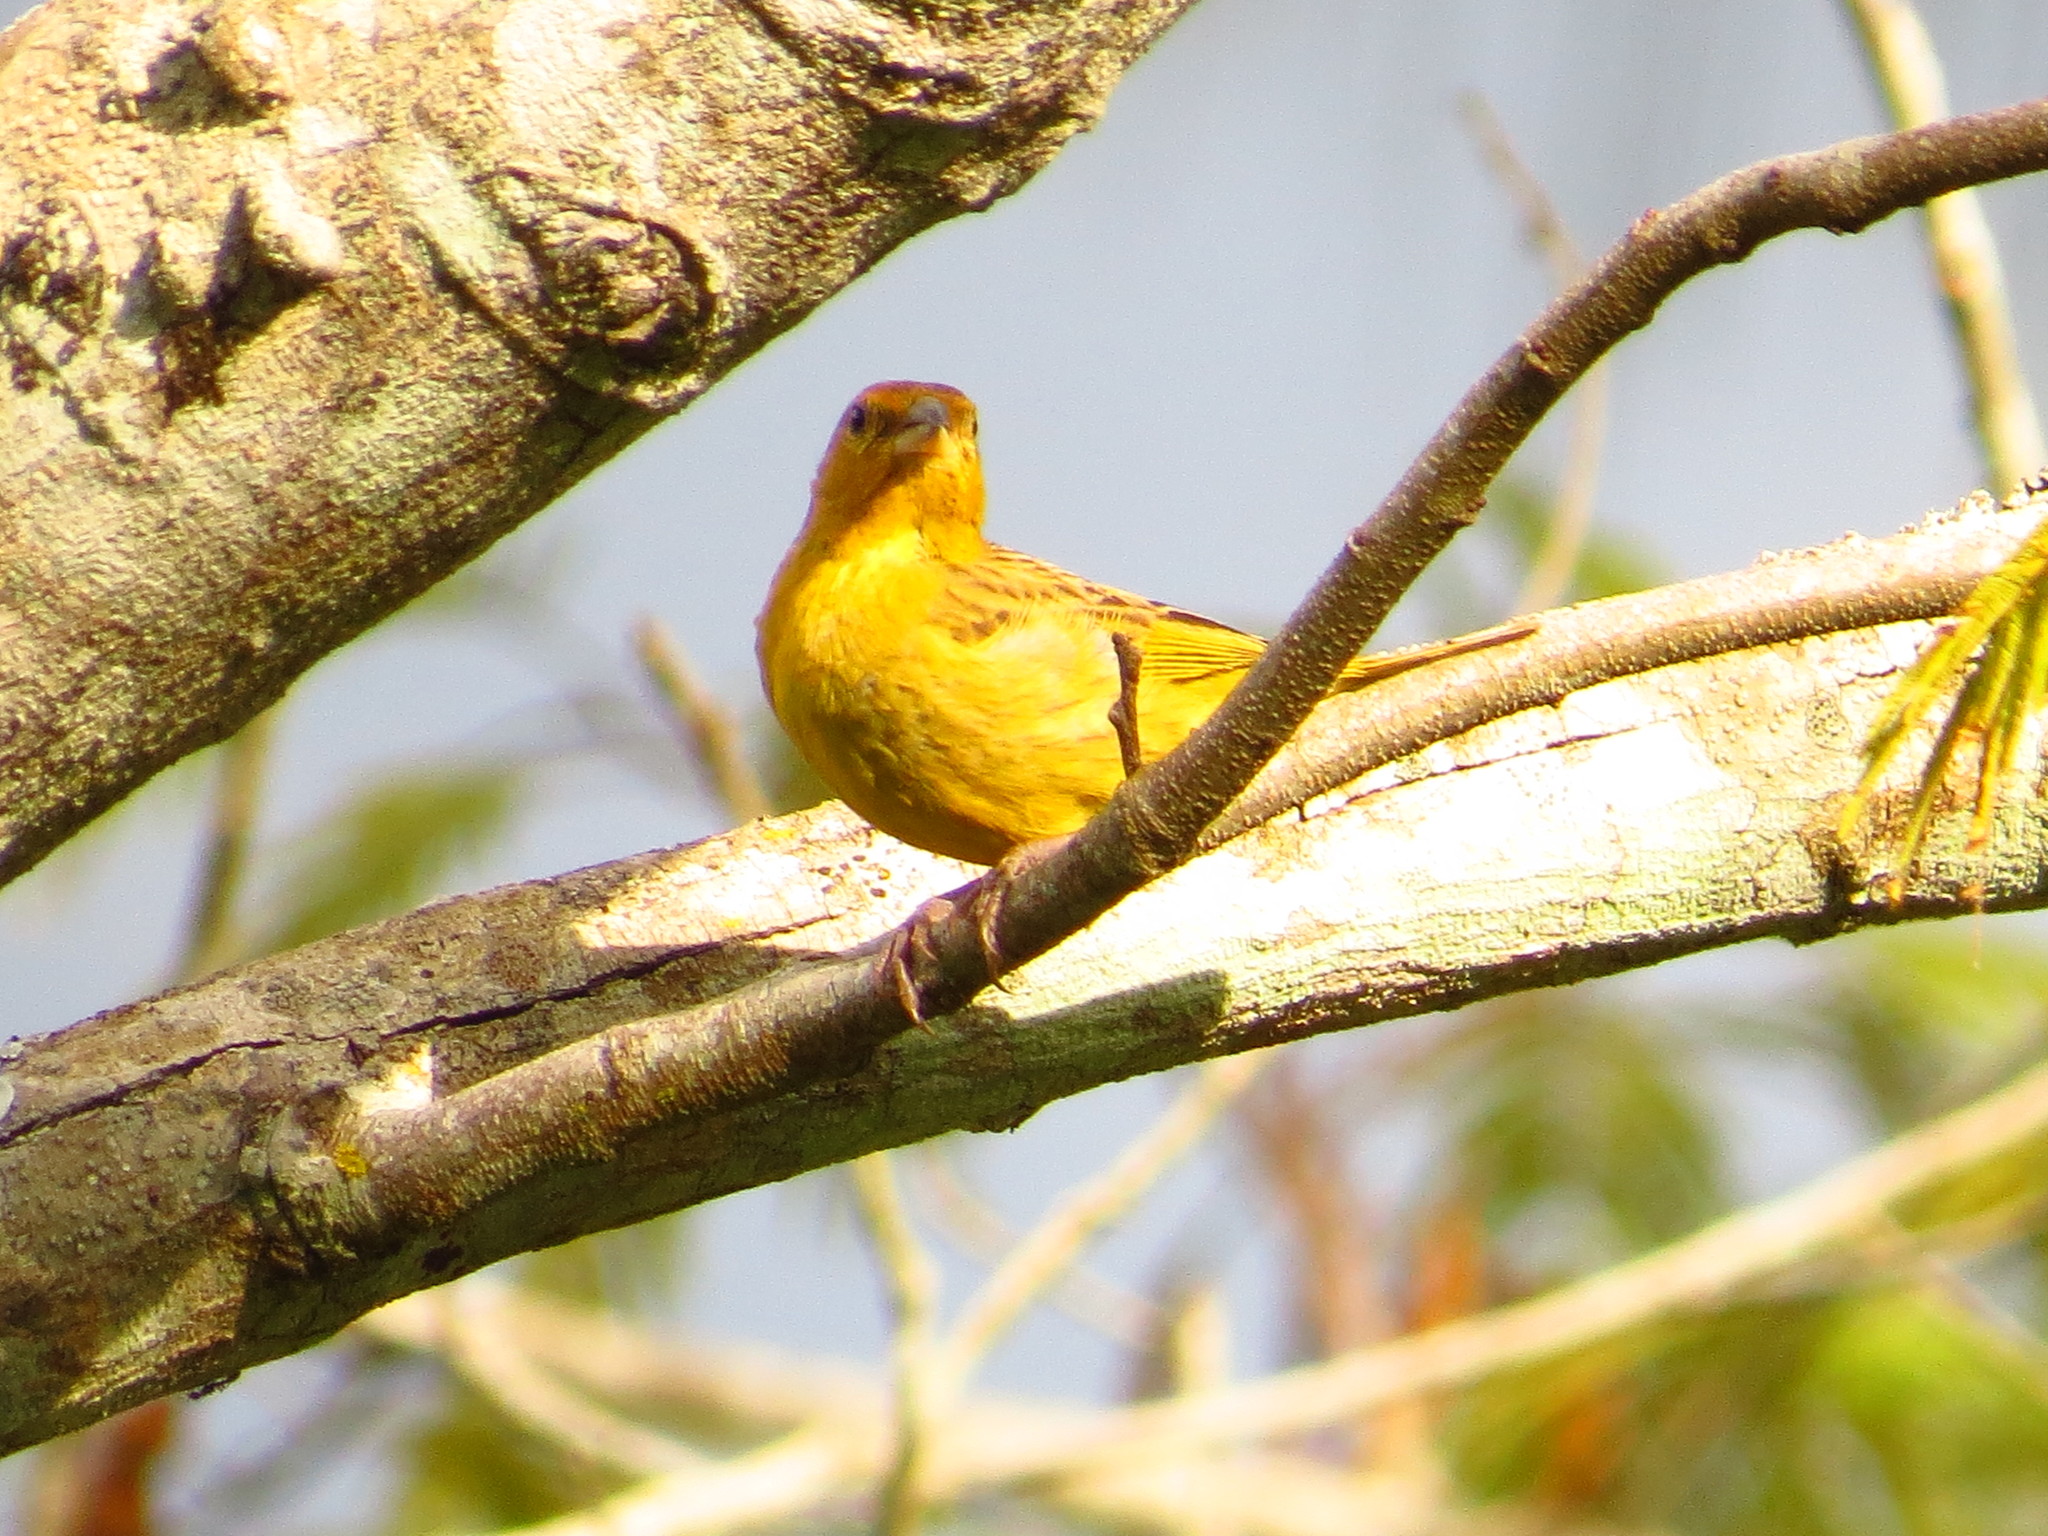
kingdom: Animalia
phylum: Chordata
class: Aves
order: Passeriformes
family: Thraupidae
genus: Sicalis
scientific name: Sicalis flaveola
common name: Saffron finch
